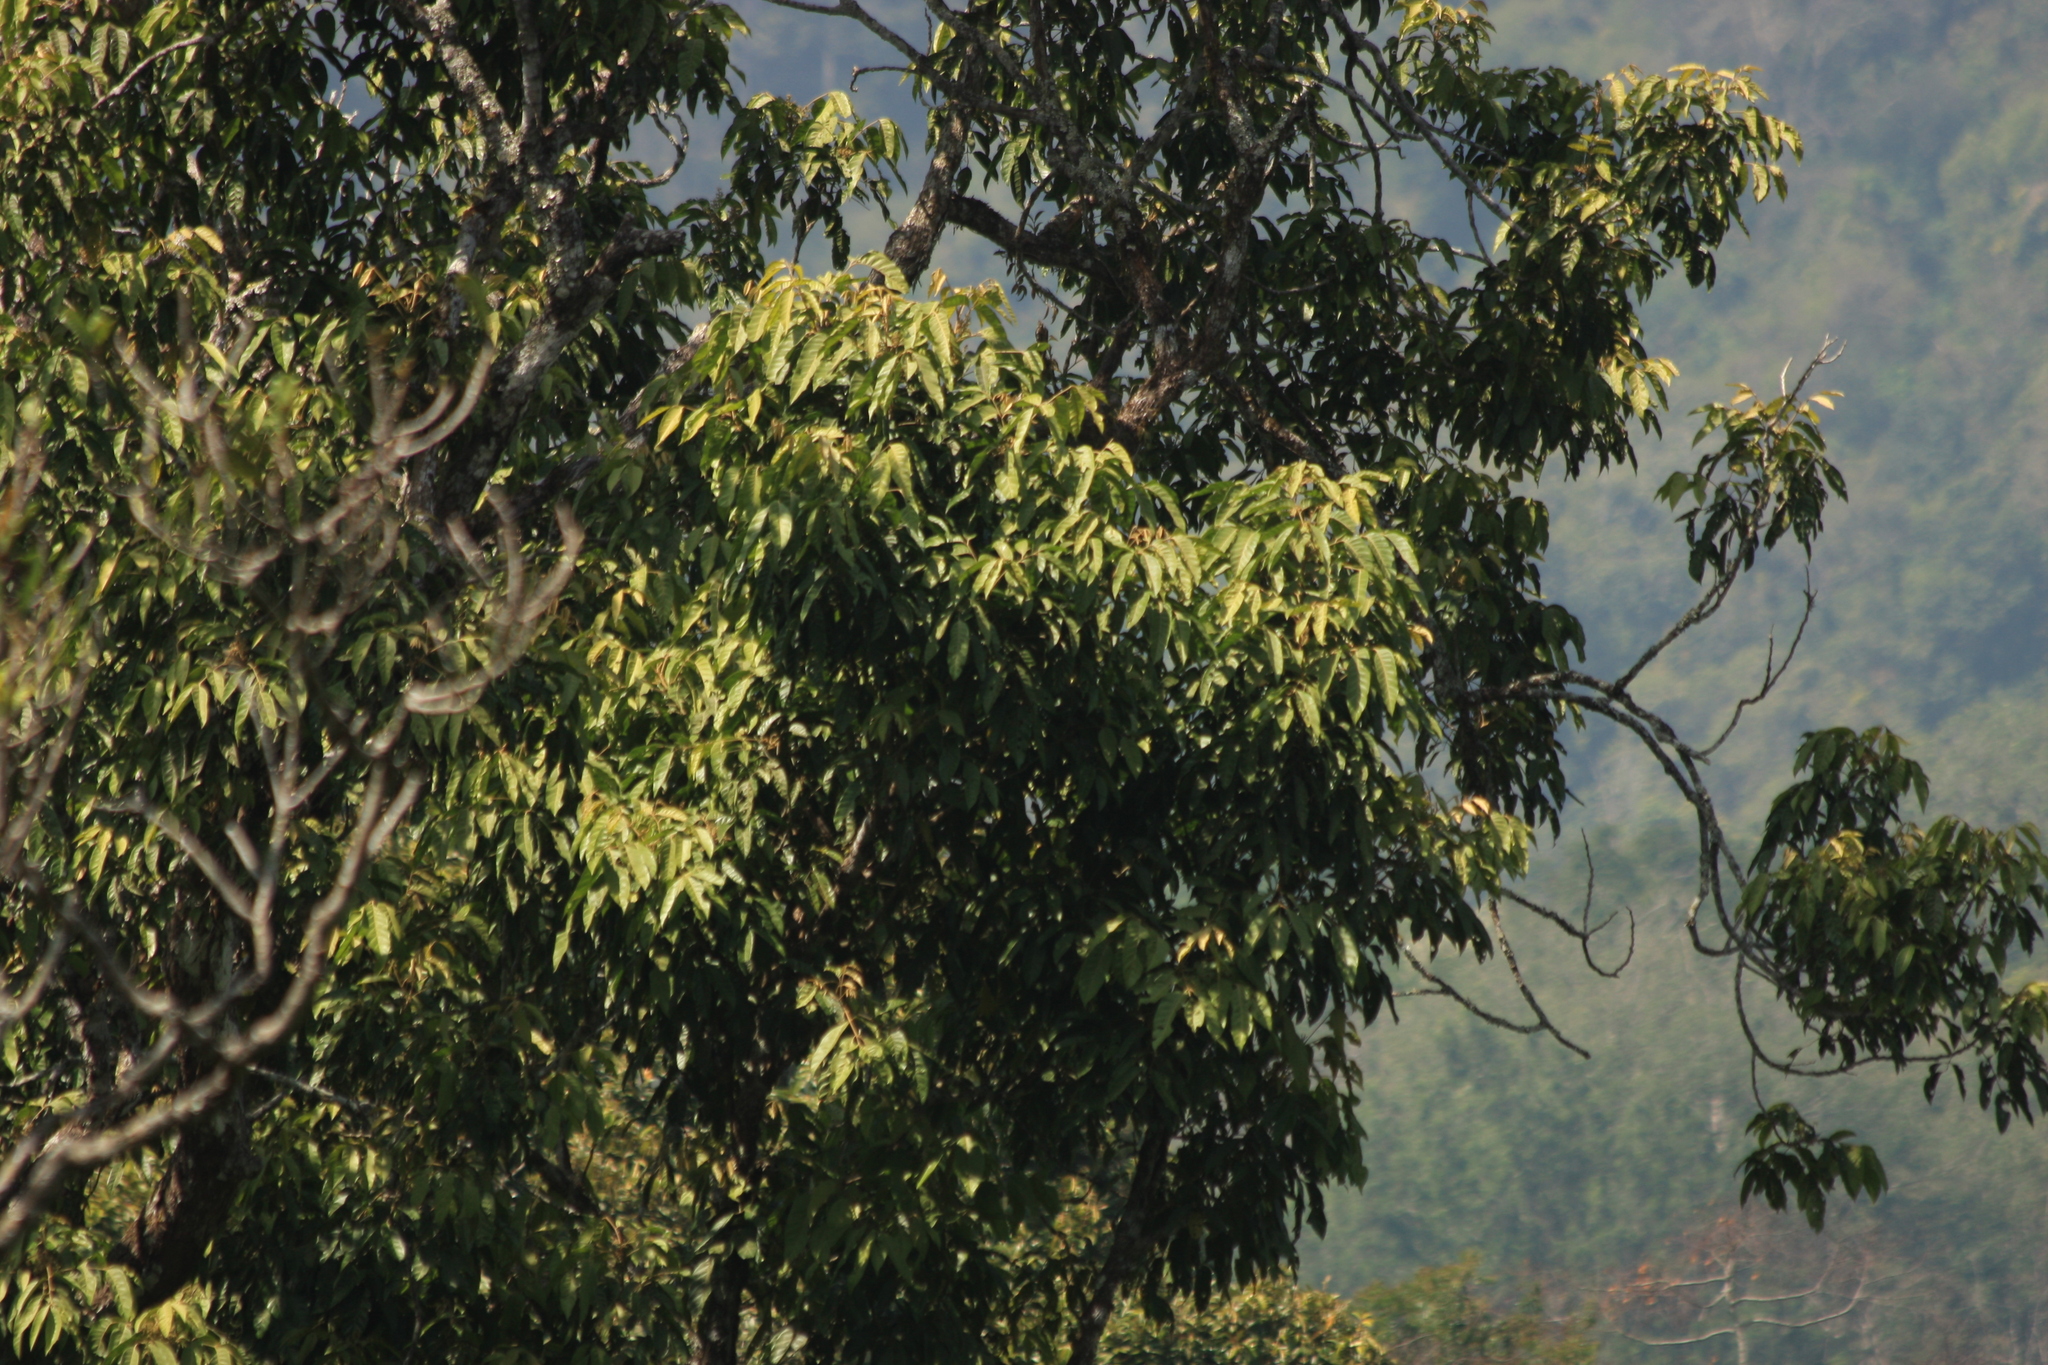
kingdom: Plantae
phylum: Tracheophyta
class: Magnoliopsida
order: Sapindales
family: Meliaceae
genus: Dysoxylum
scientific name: Dysoxylum malabaricum
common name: White cedar
